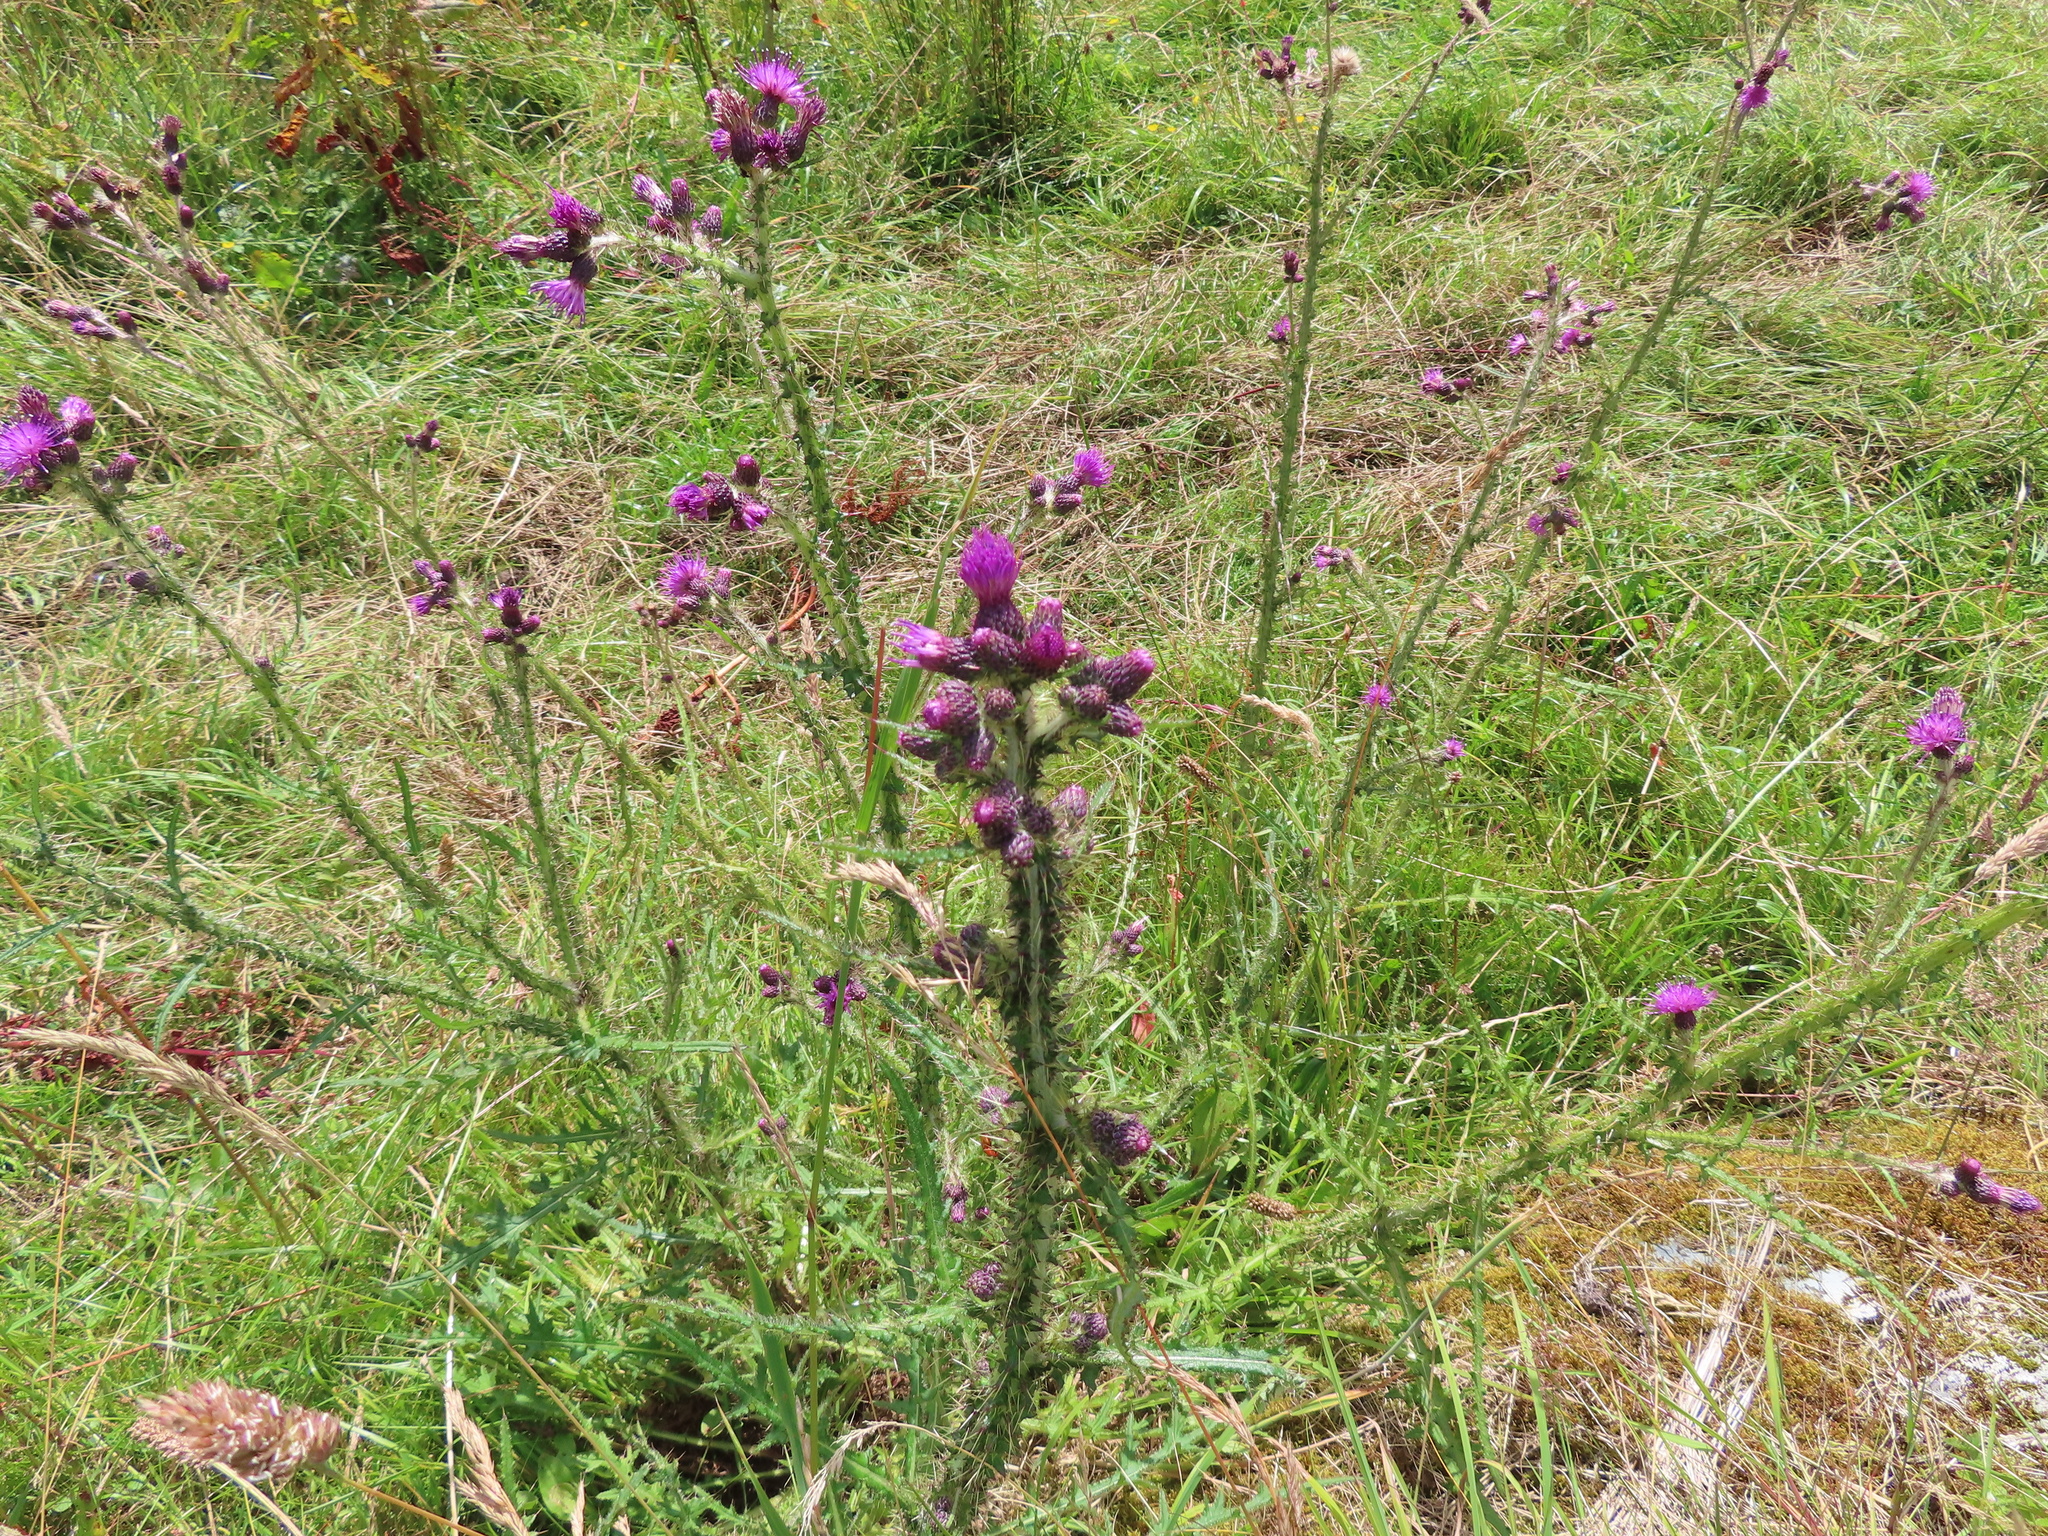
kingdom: Plantae
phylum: Tracheophyta
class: Magnoliopsida
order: Asterales
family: Asteraceae
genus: Cirsium
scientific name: Cirsium palustre
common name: Marsh thistle
